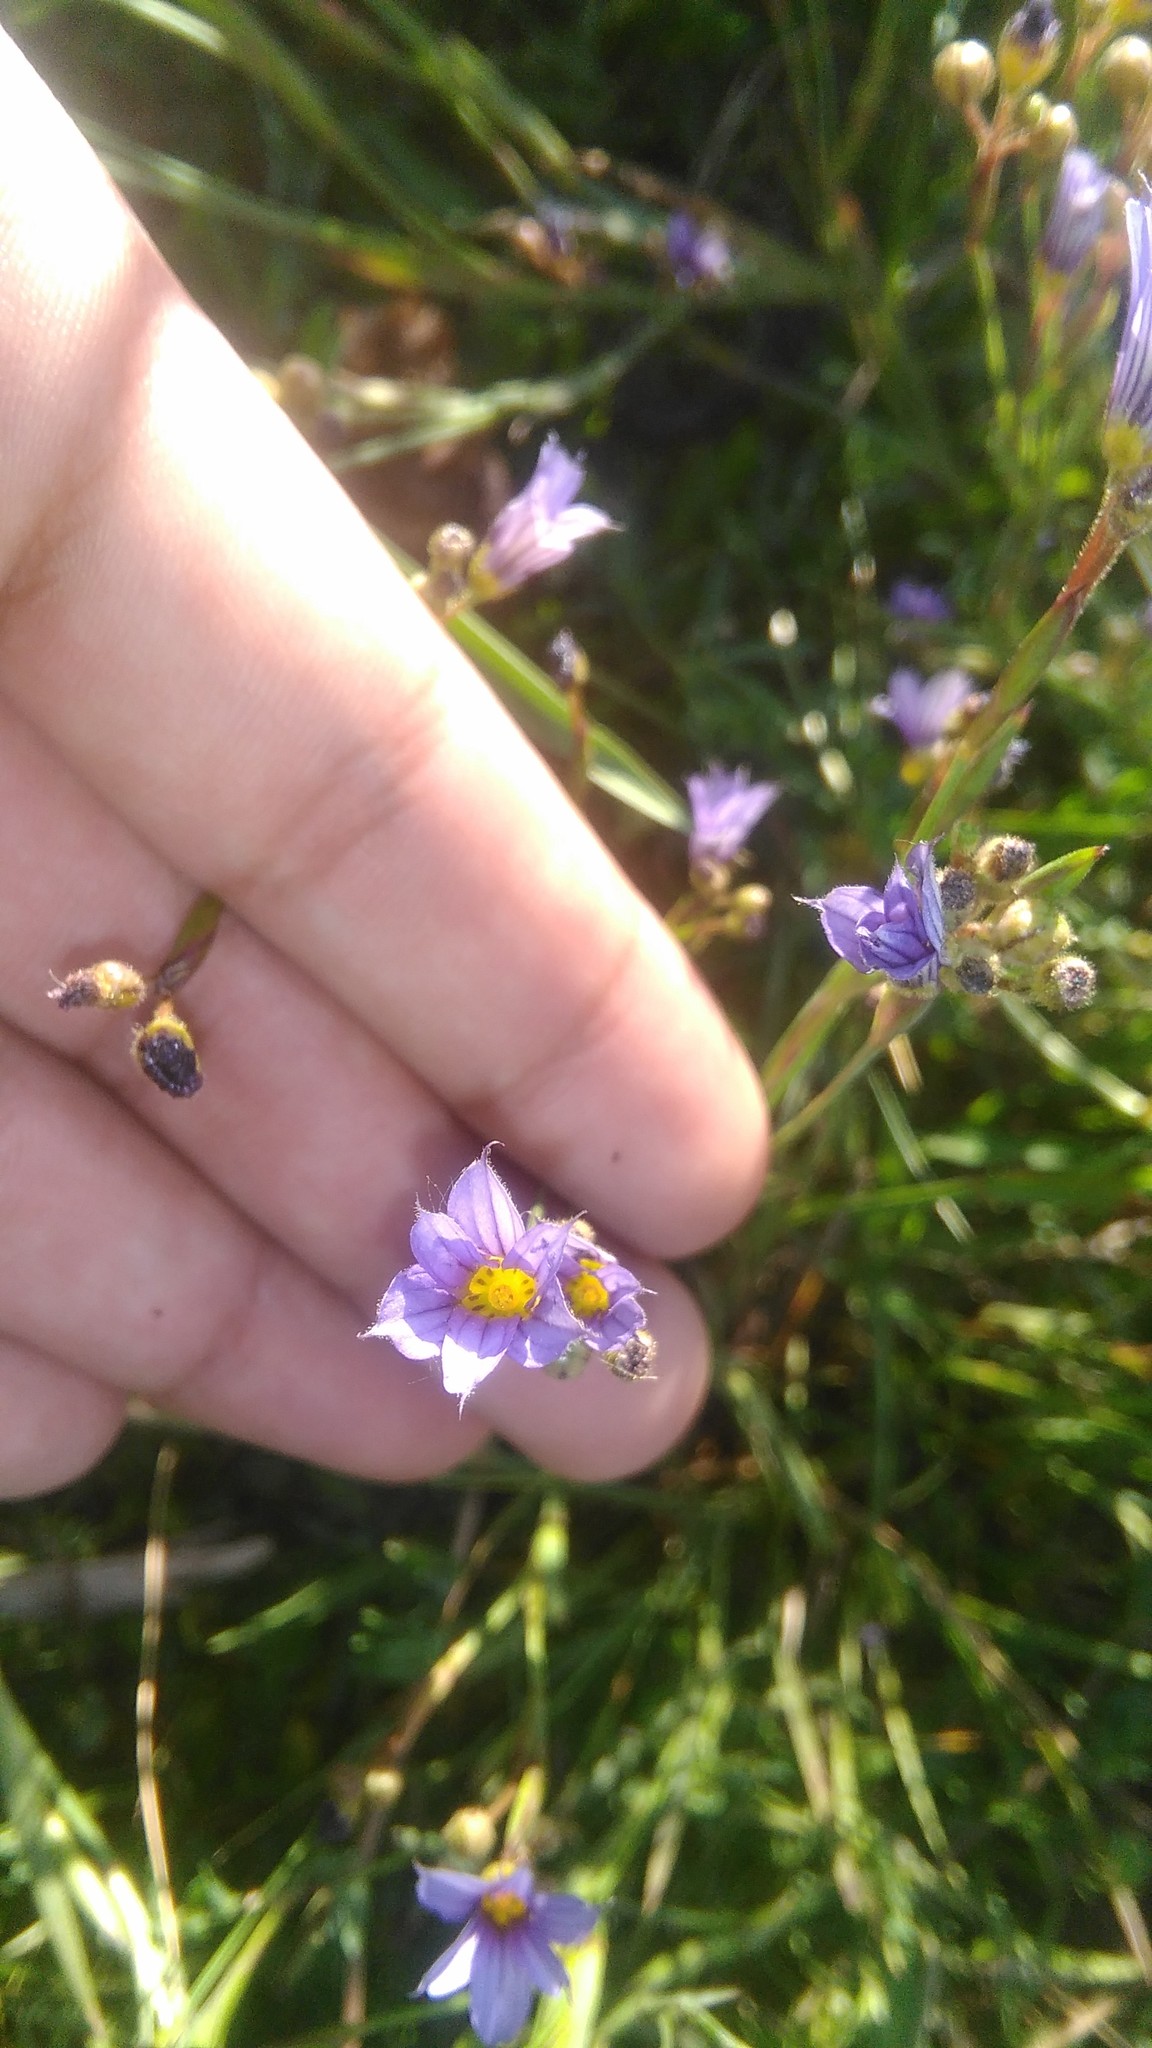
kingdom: Plantae
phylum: Tracheophyta
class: Liliopsida
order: Asparagales
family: Iridaceae
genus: Sisyrinchium
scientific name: Sisyrinchium platense
